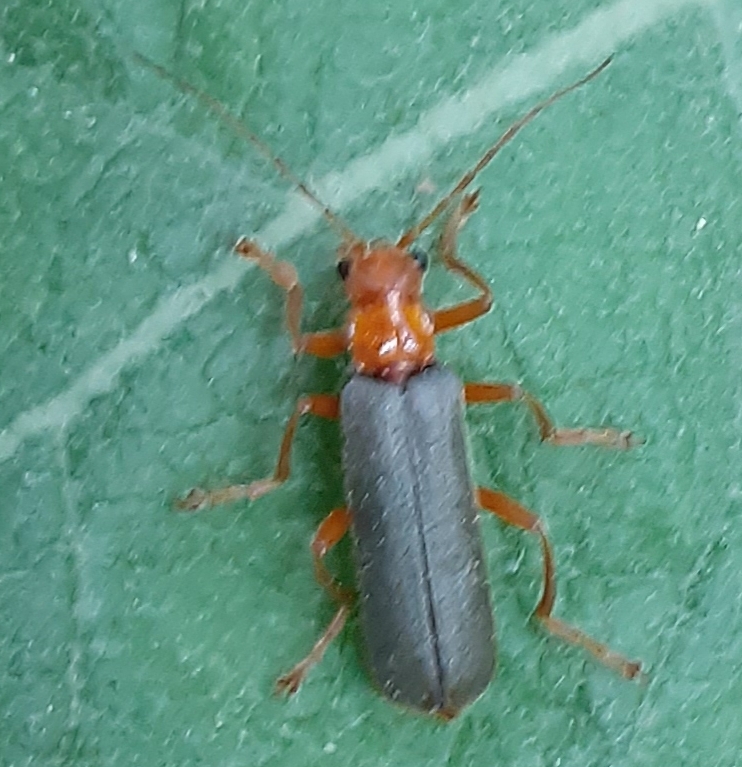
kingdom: Animalia
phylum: Arthropoda
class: Insecta
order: Coleoptera
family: Cantharidae
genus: Pacificanthia
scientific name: Pacificanthia rotundicollis
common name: Brown leatherwing beetle
